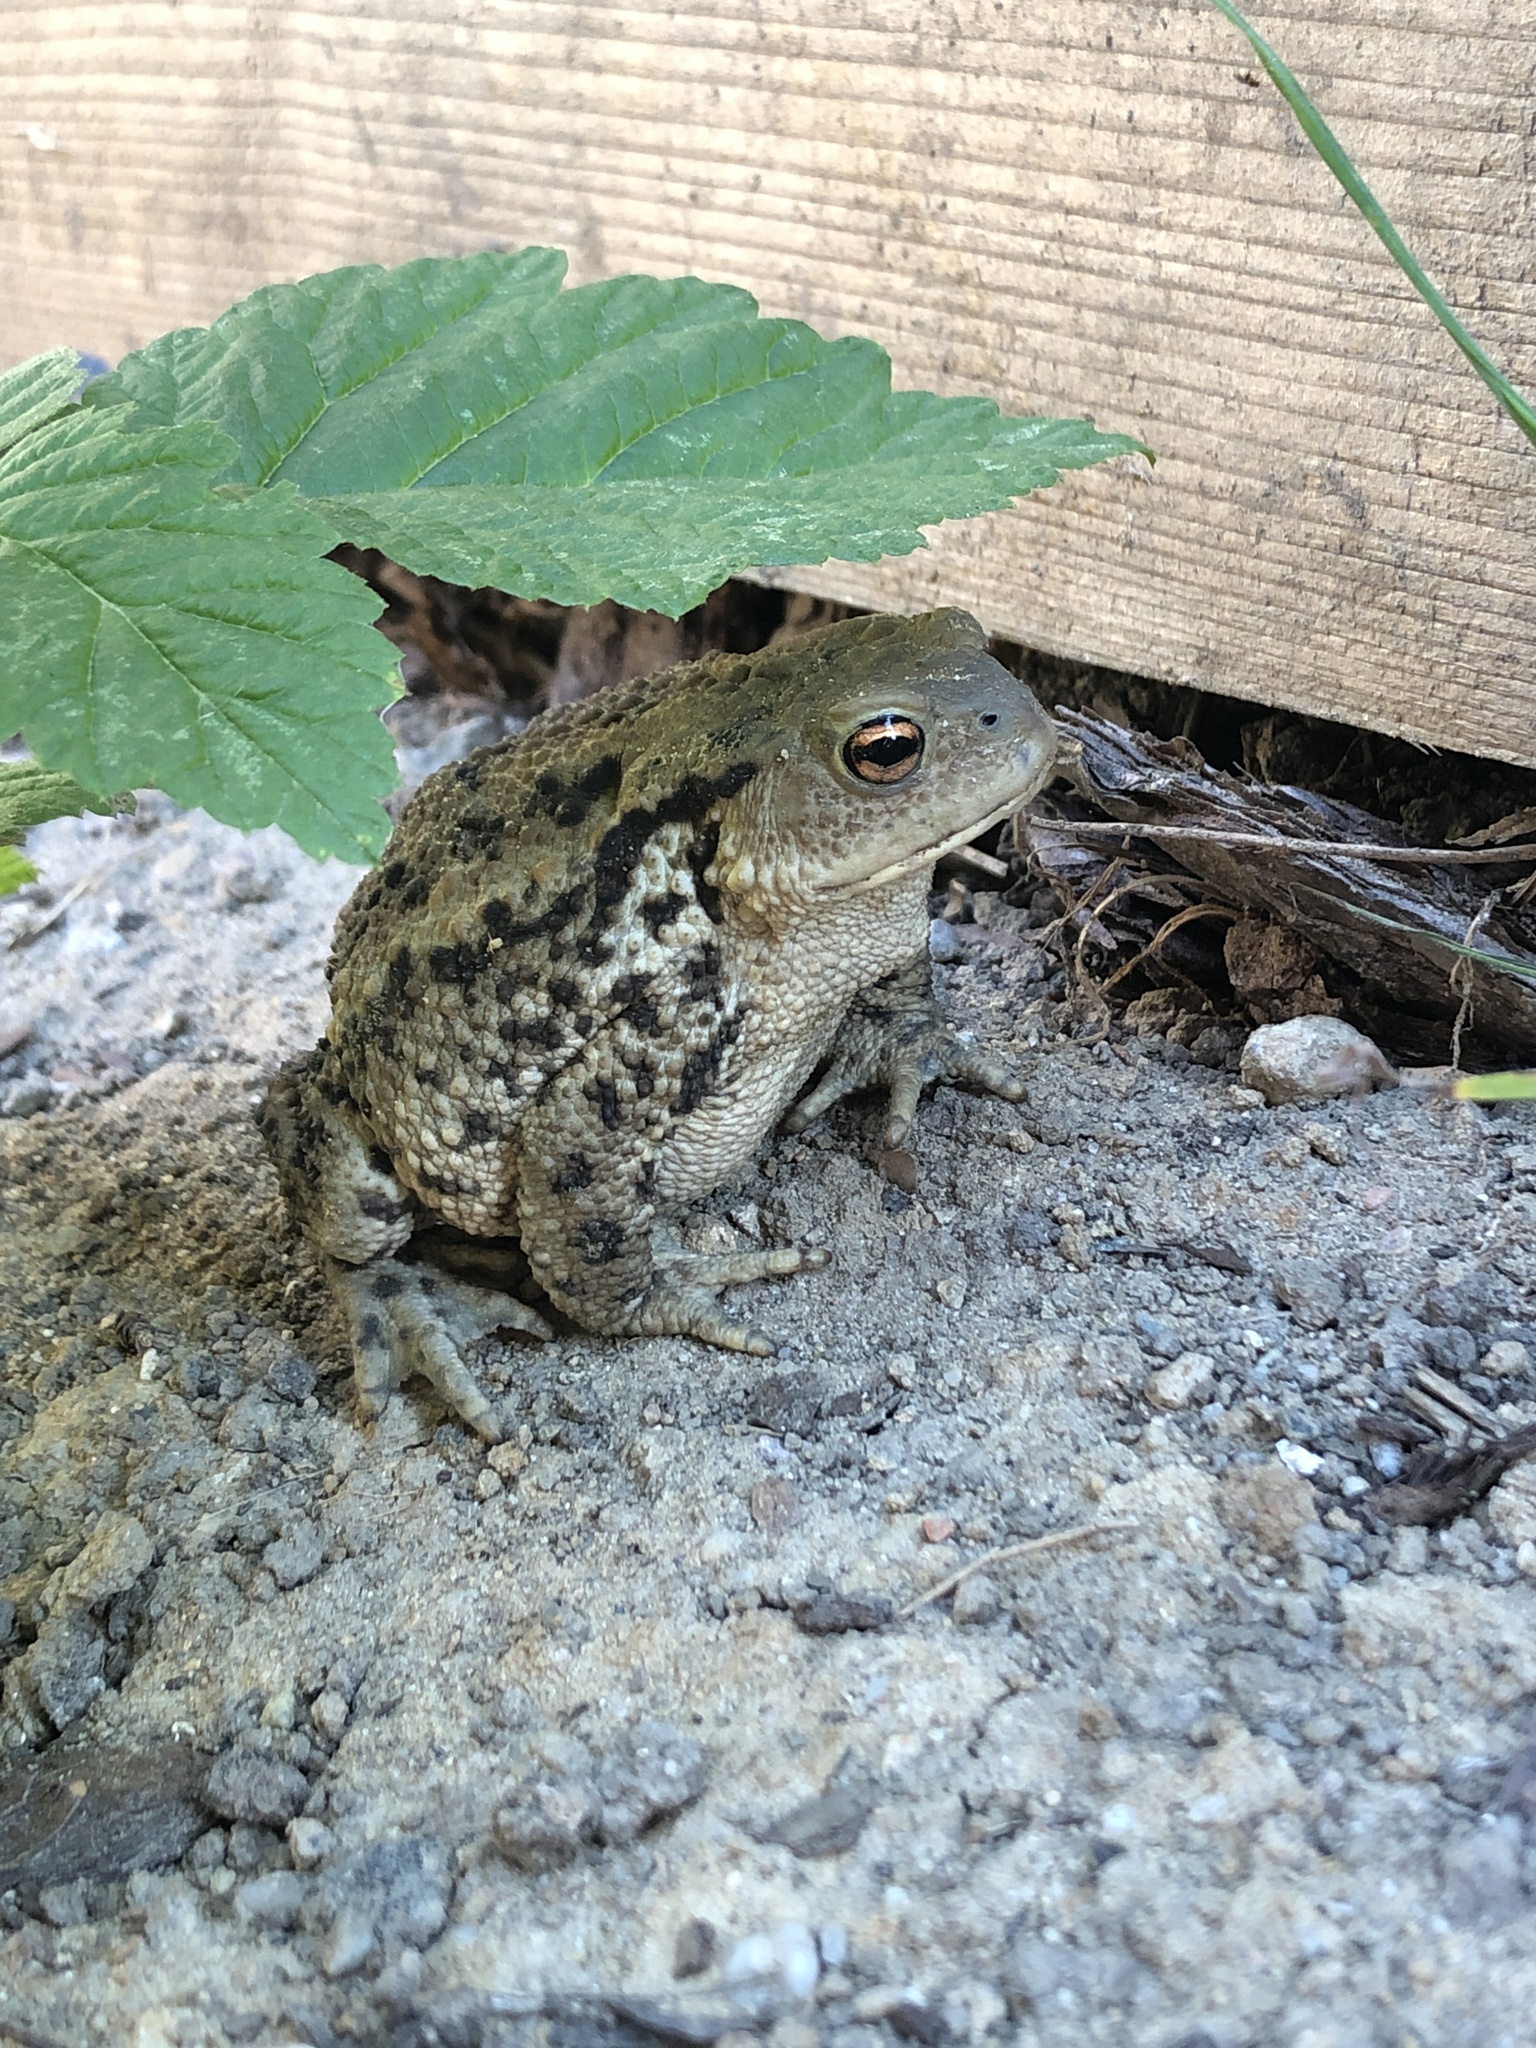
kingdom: Animalia
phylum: Chordata
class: Amphibia
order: Anura
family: Bufonidae
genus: Bufo
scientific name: Bufo bufo
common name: Common toad
